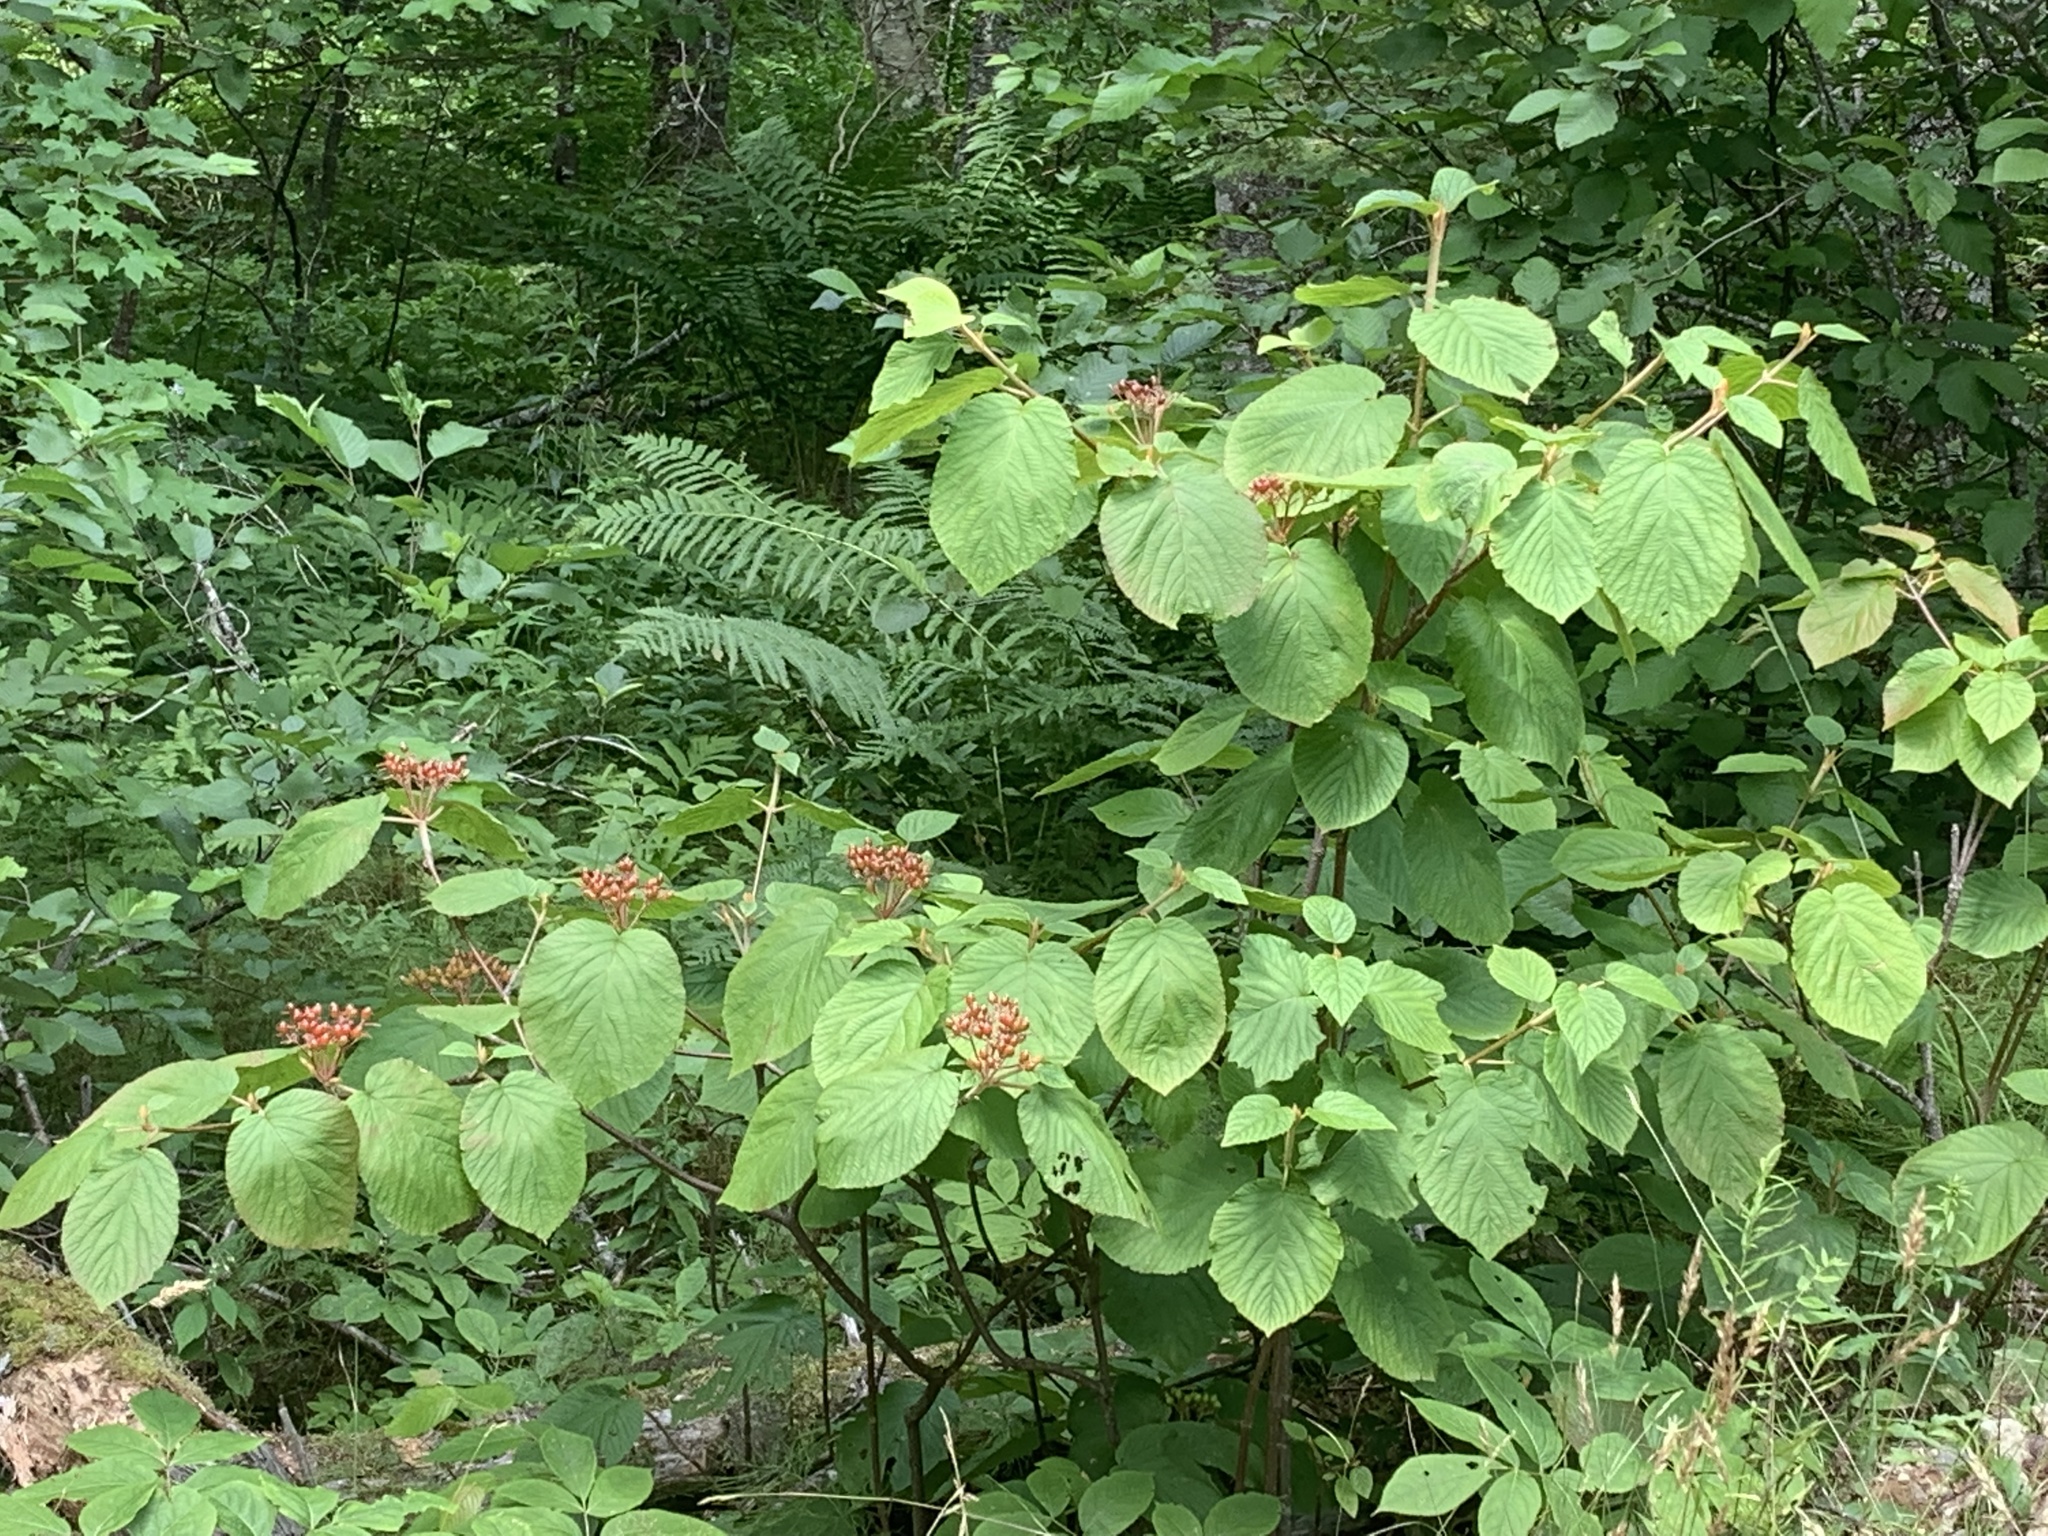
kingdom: Plantae
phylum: Tracheophyta
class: Magnoliopsida
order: Dipsacales
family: Viburnaceae
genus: Viburnum
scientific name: Viburnum lantanoides
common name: Hobblebush
